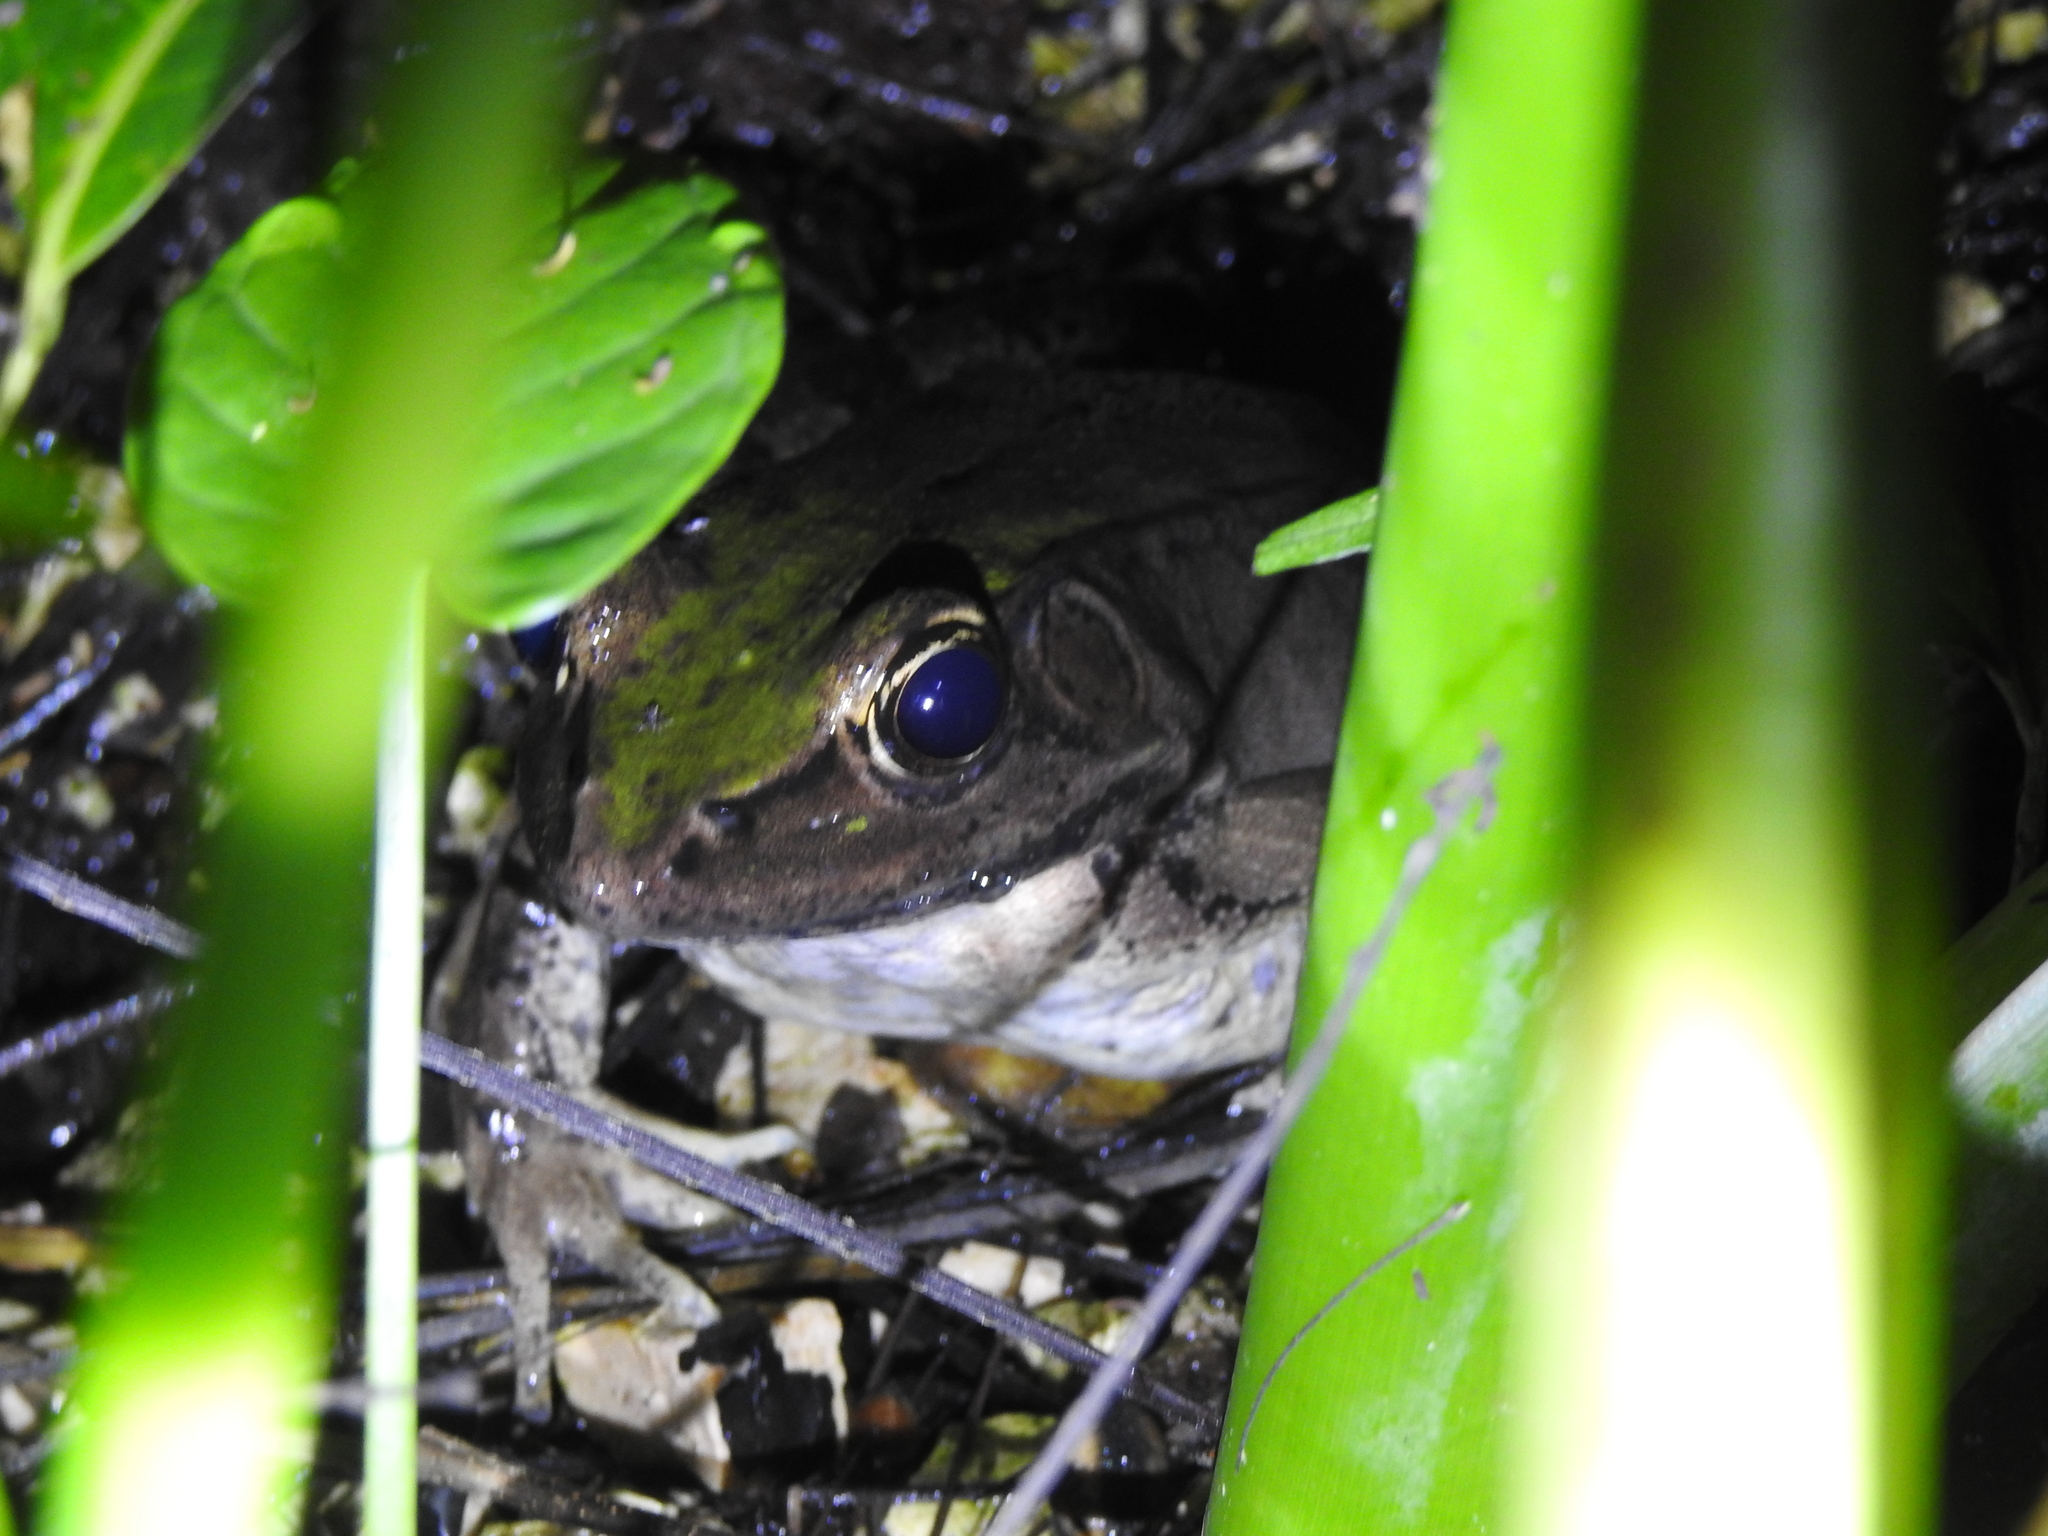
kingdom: Animalia
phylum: Chordata
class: Amphibia
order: Anura
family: Ranidae
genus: Lithobates
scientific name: Lithobates brownorum
